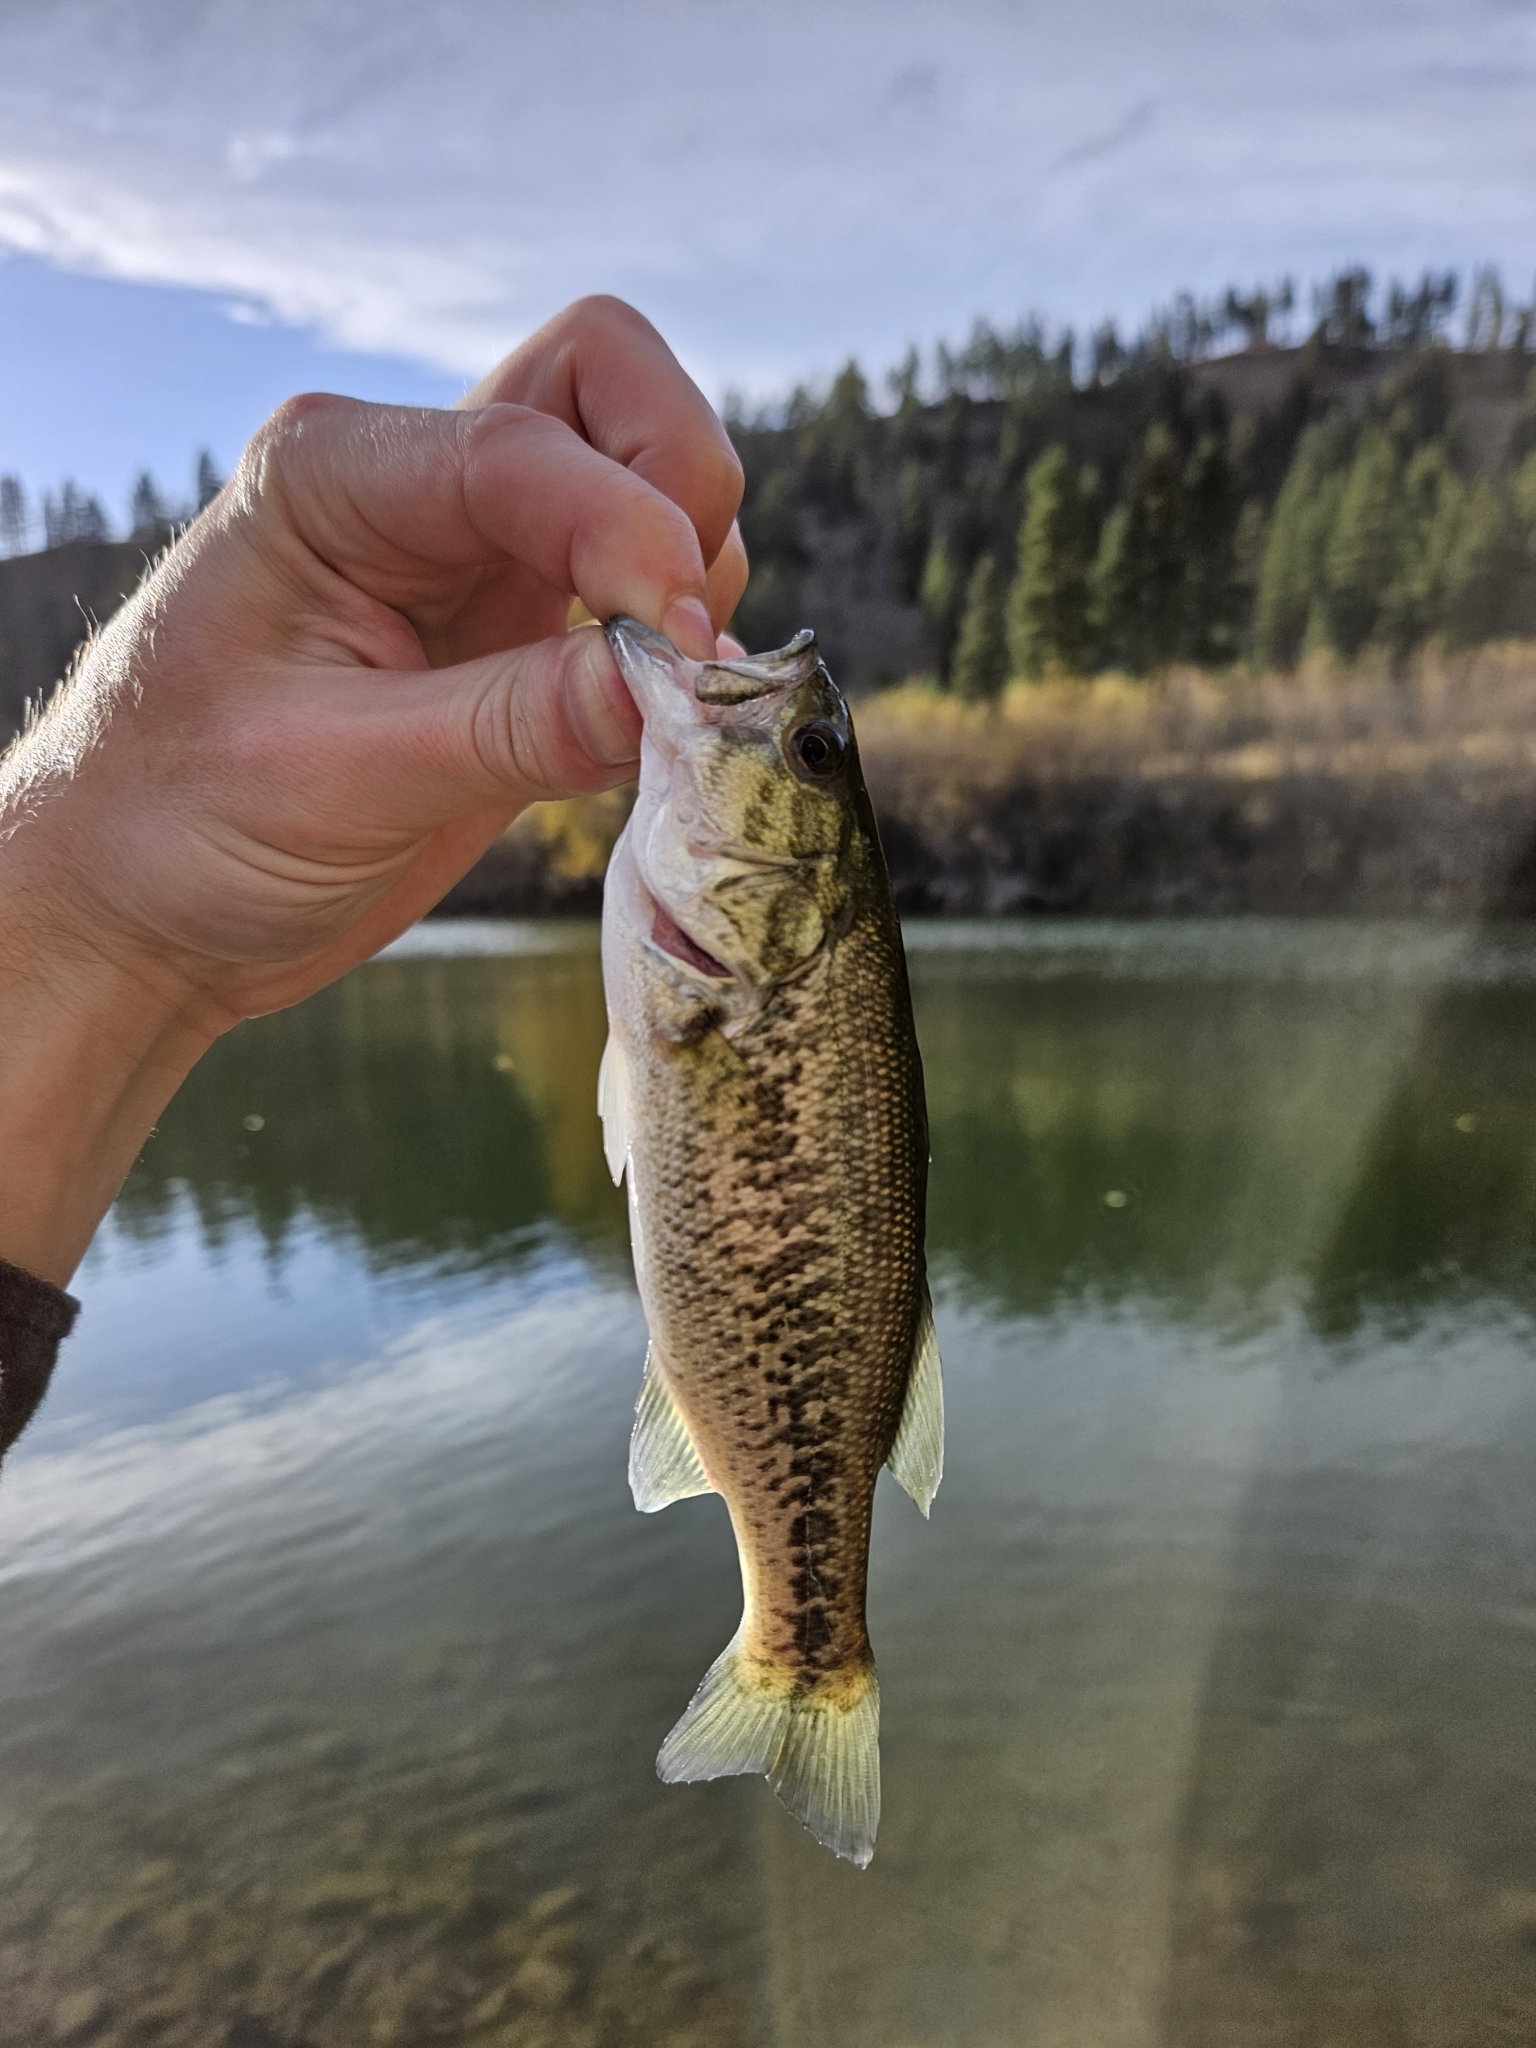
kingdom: Animalia
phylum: Chordata
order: Perciformes
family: Centrarchidae
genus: Micropterus
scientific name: Micropterus
